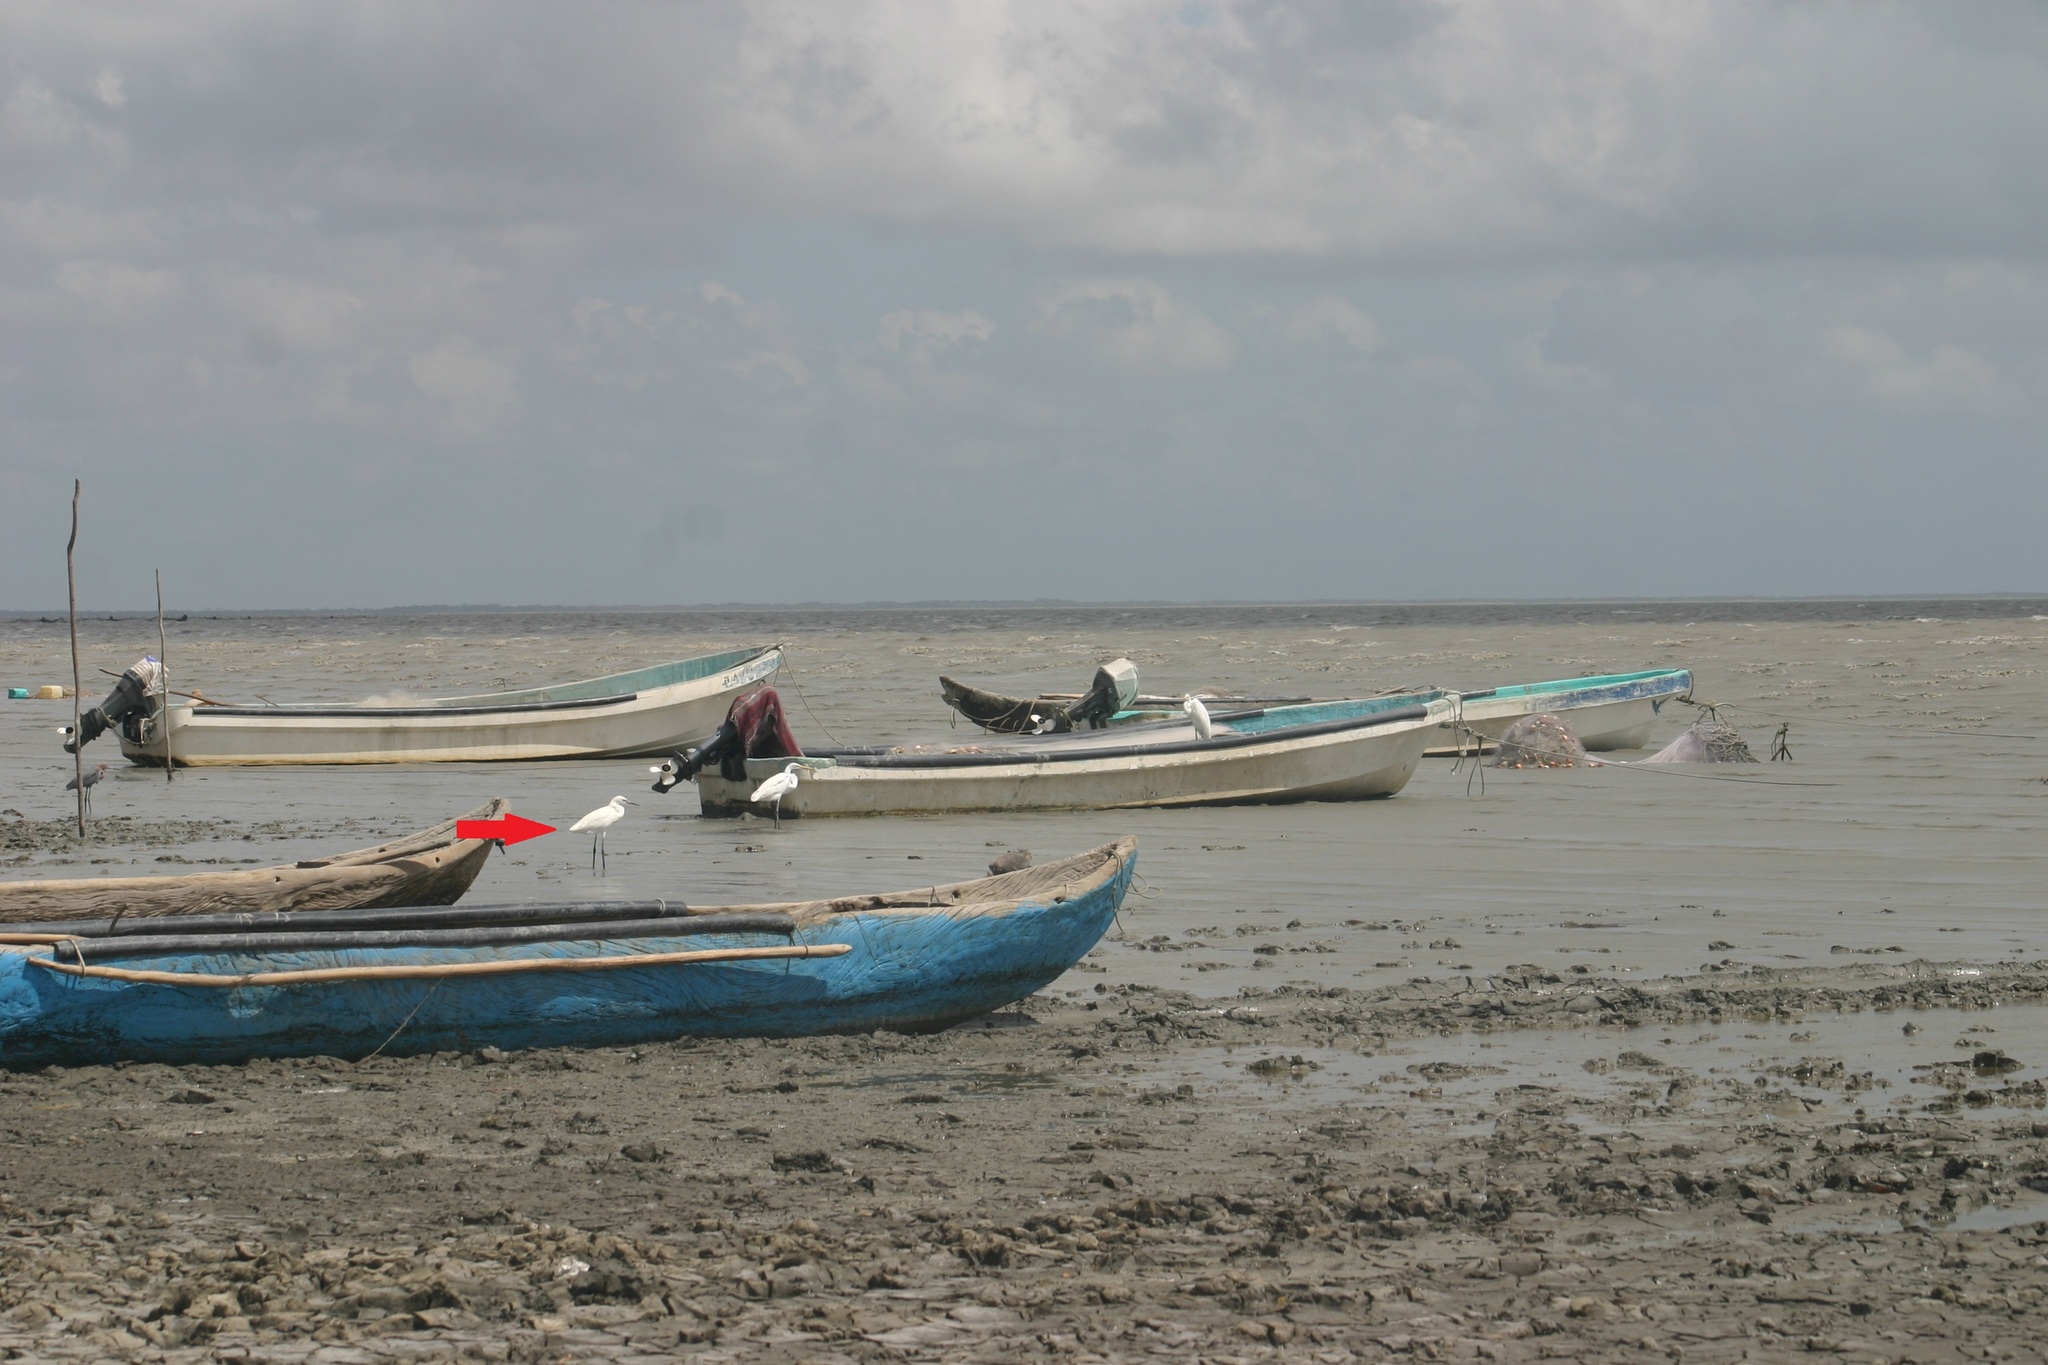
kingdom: Animalia
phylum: Chordata
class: Aves
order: Pelecaniformes
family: Ardeidae
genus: Egretta
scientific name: Egretta rufescens
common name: Reddish egret
